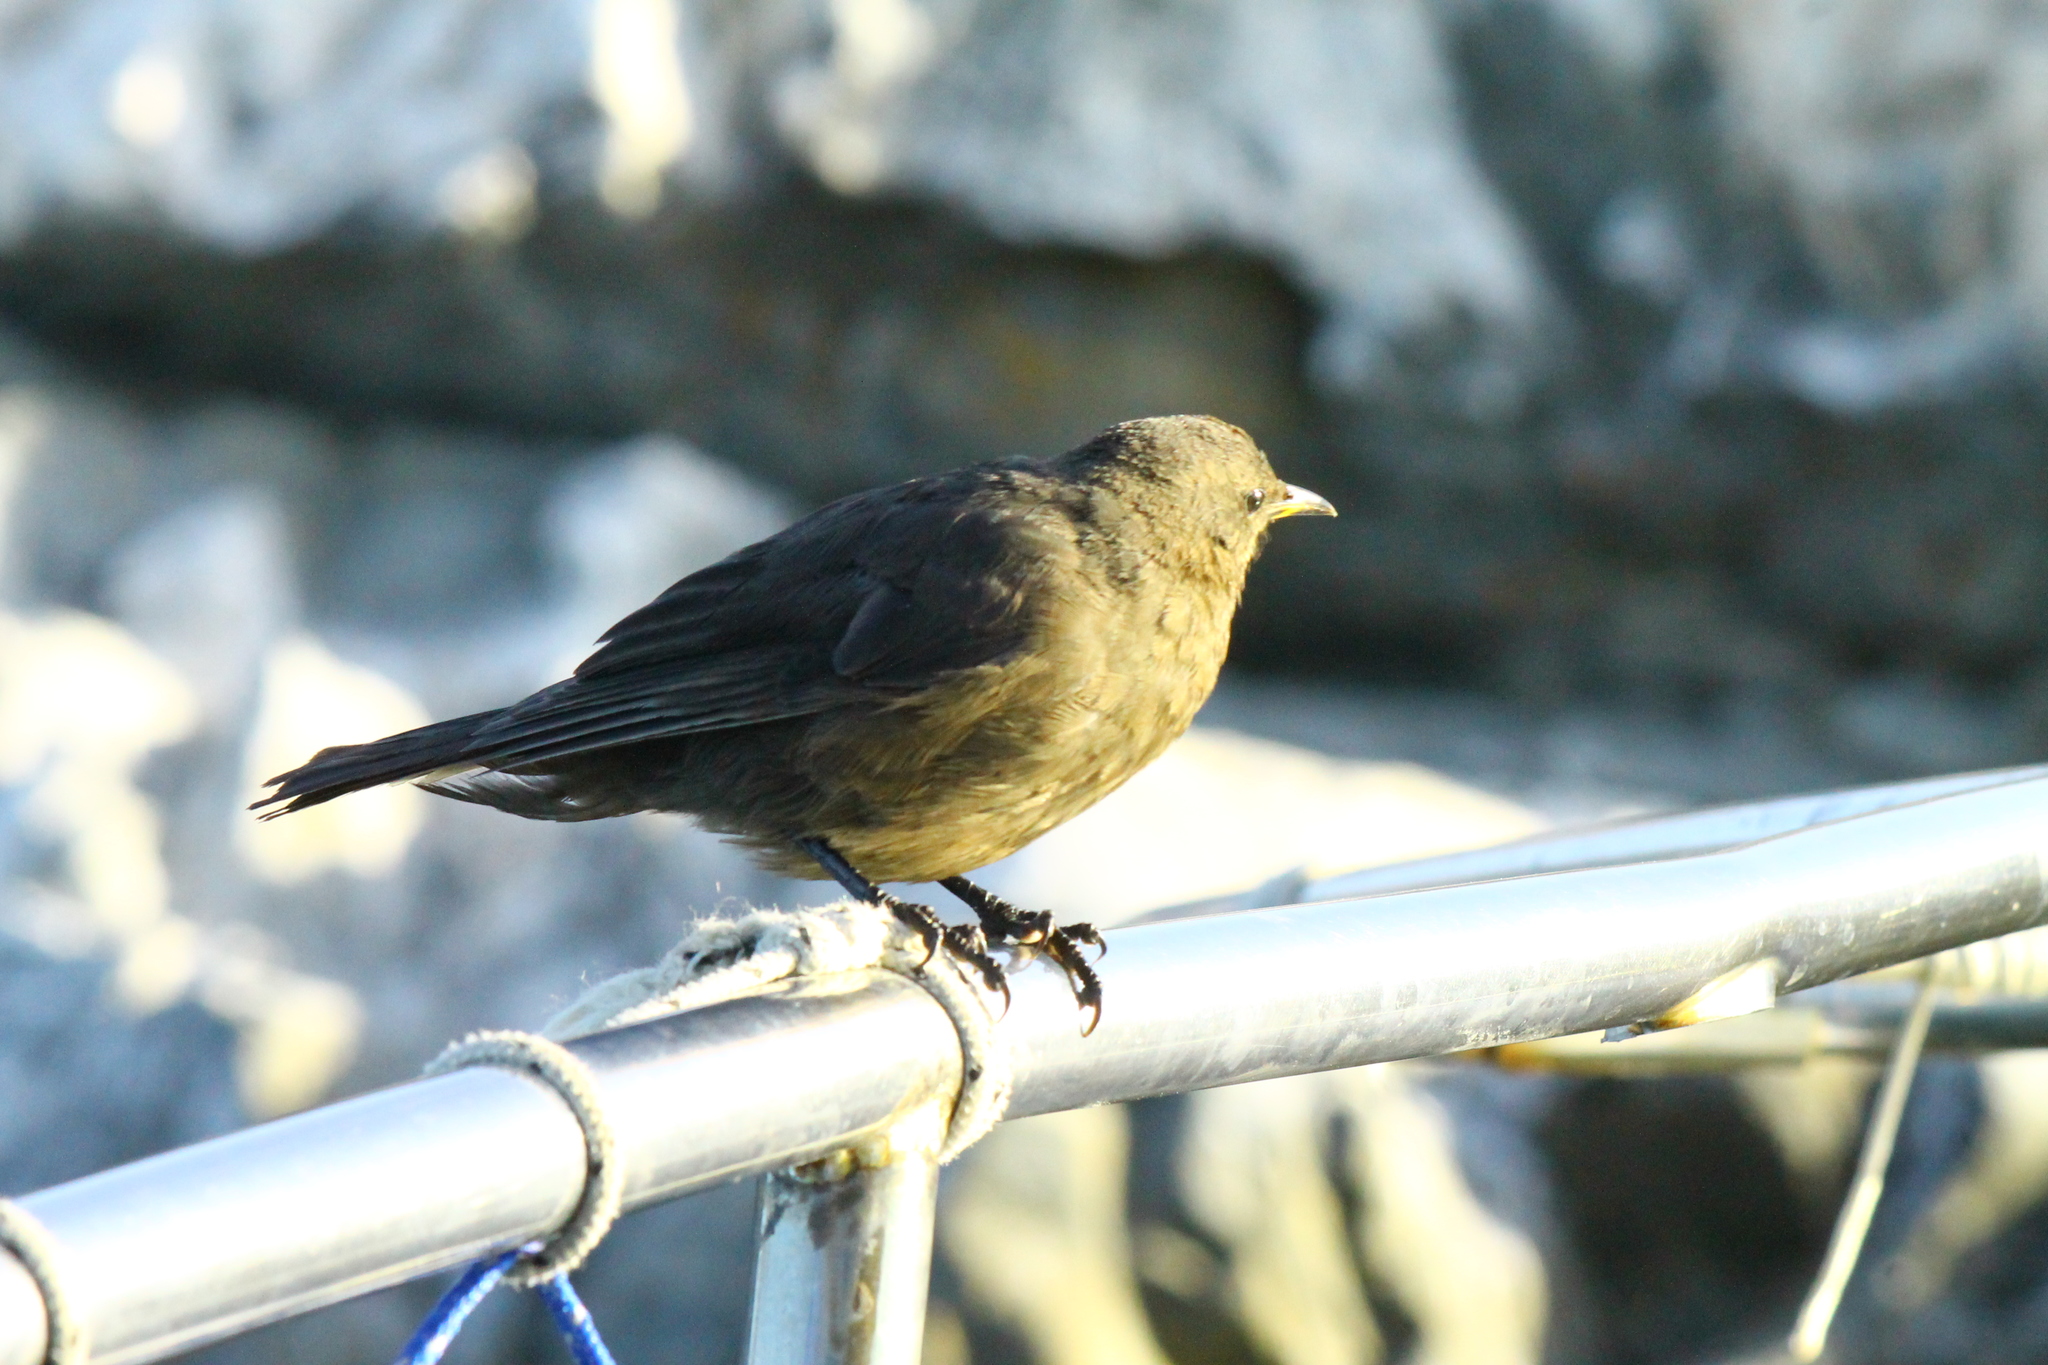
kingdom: Animalia
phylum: Chordata
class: Aves
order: Passeriformes
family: Furnariidae
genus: Cinclodes
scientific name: Cinclodes antarcticus
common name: Blackish cinclodes
